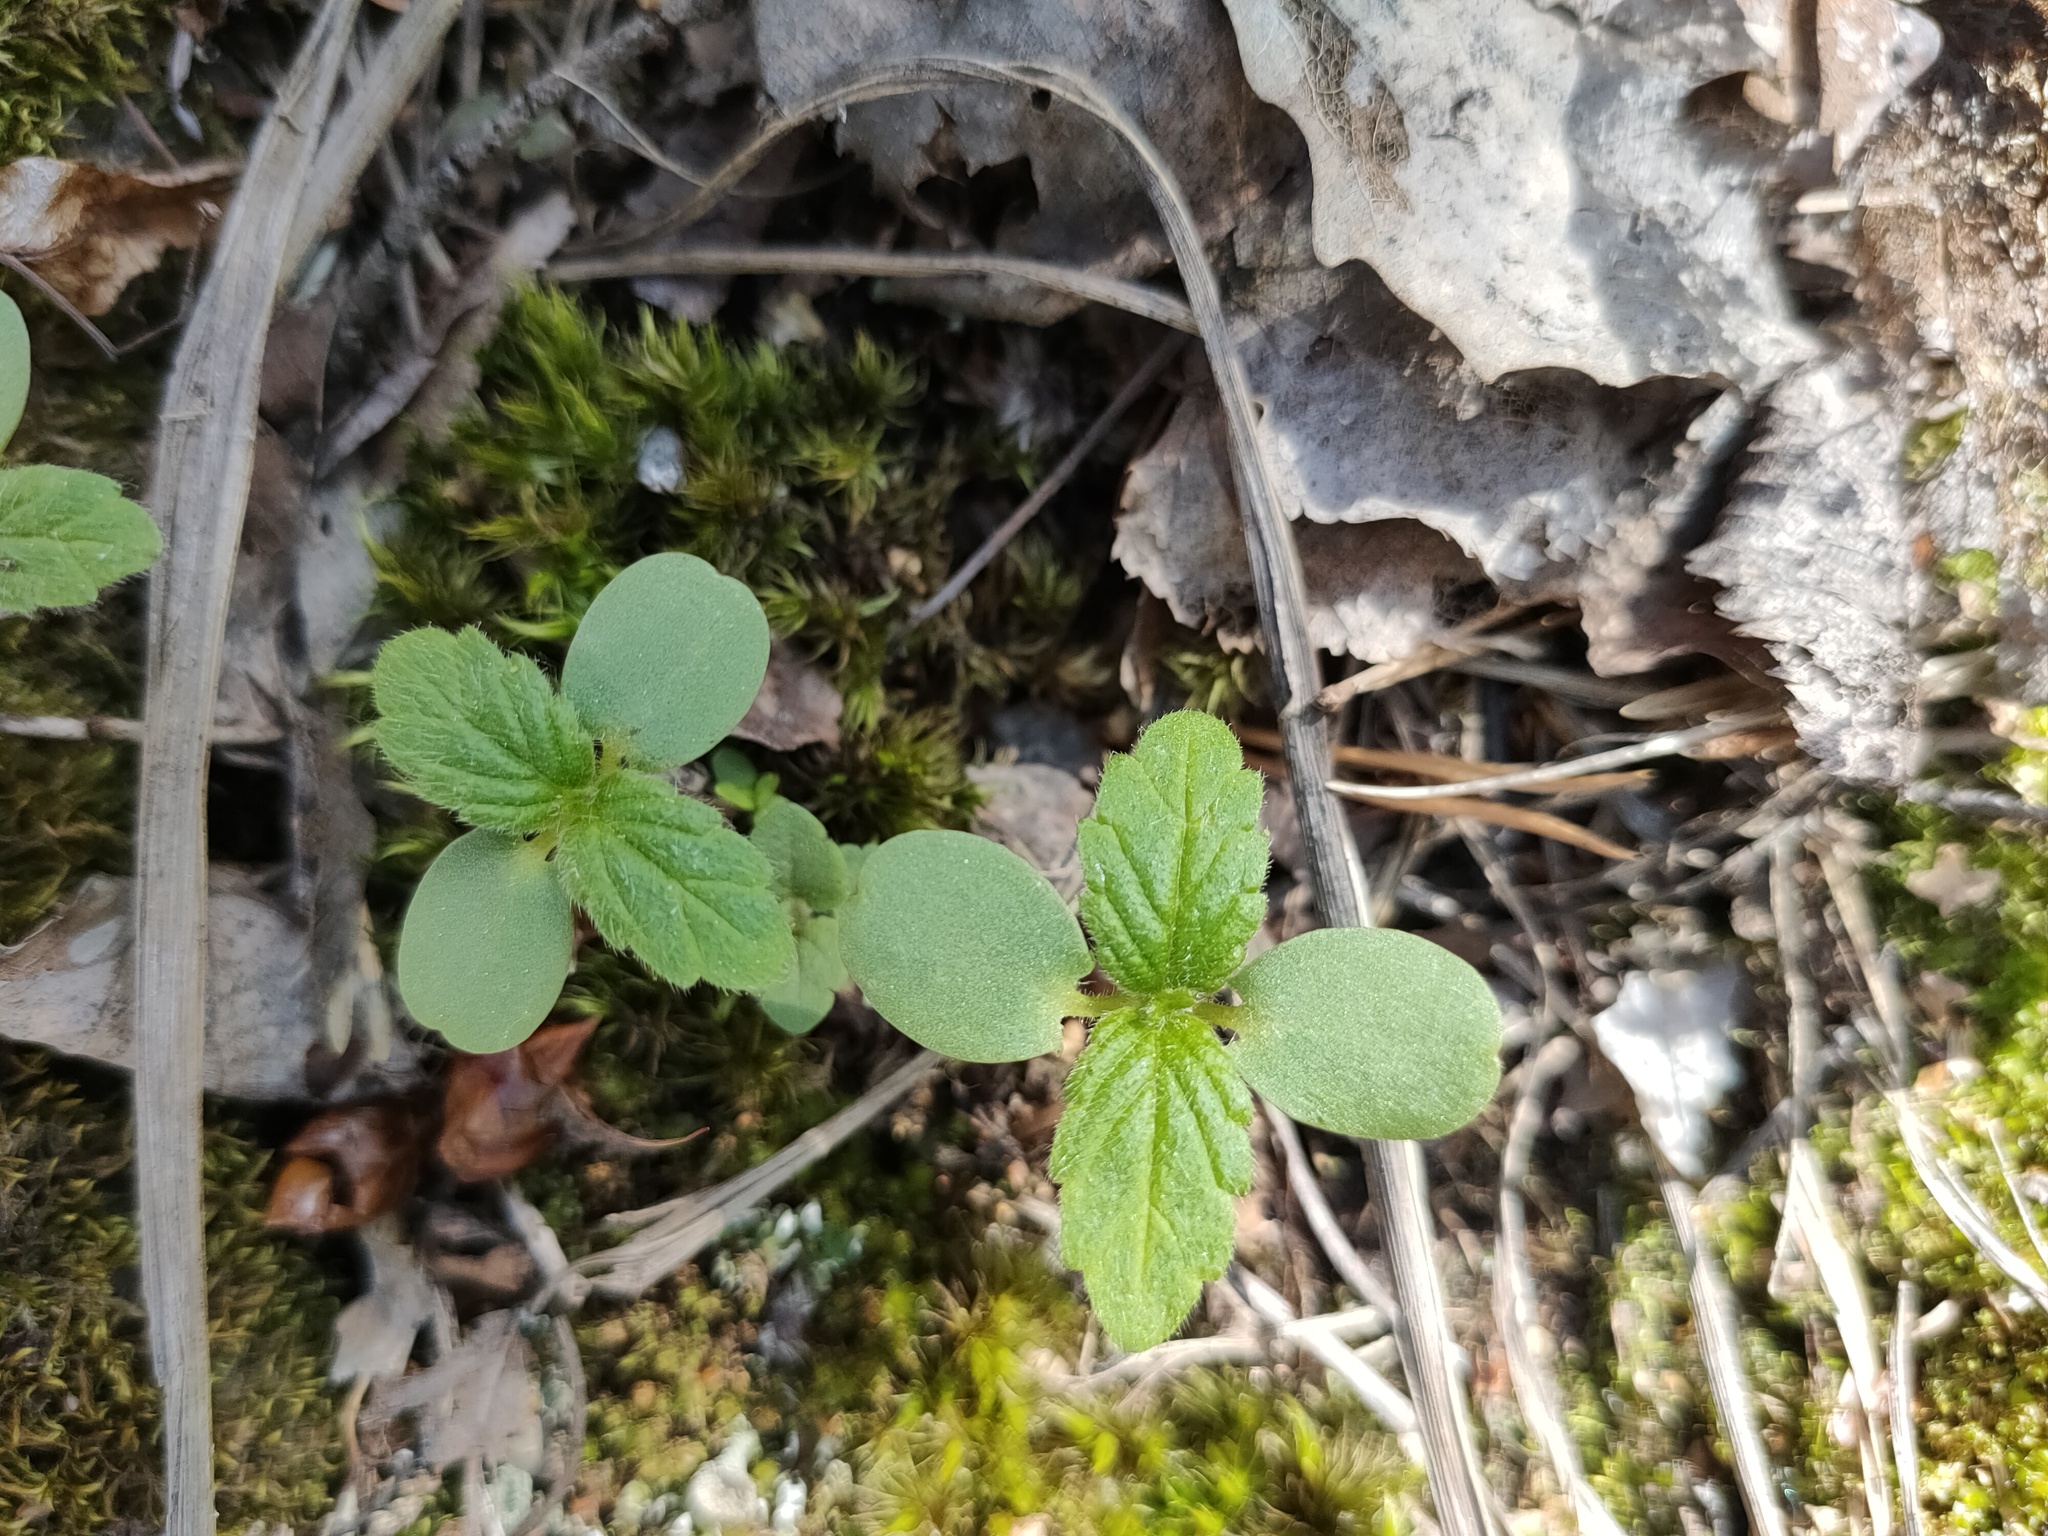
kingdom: Plantae
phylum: Tracheophyta
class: Magnoliopsida
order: Lamiales
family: Lamiaceae
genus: Galeopsis
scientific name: Galeopsis bifida
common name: Bifid hemp-nettle
